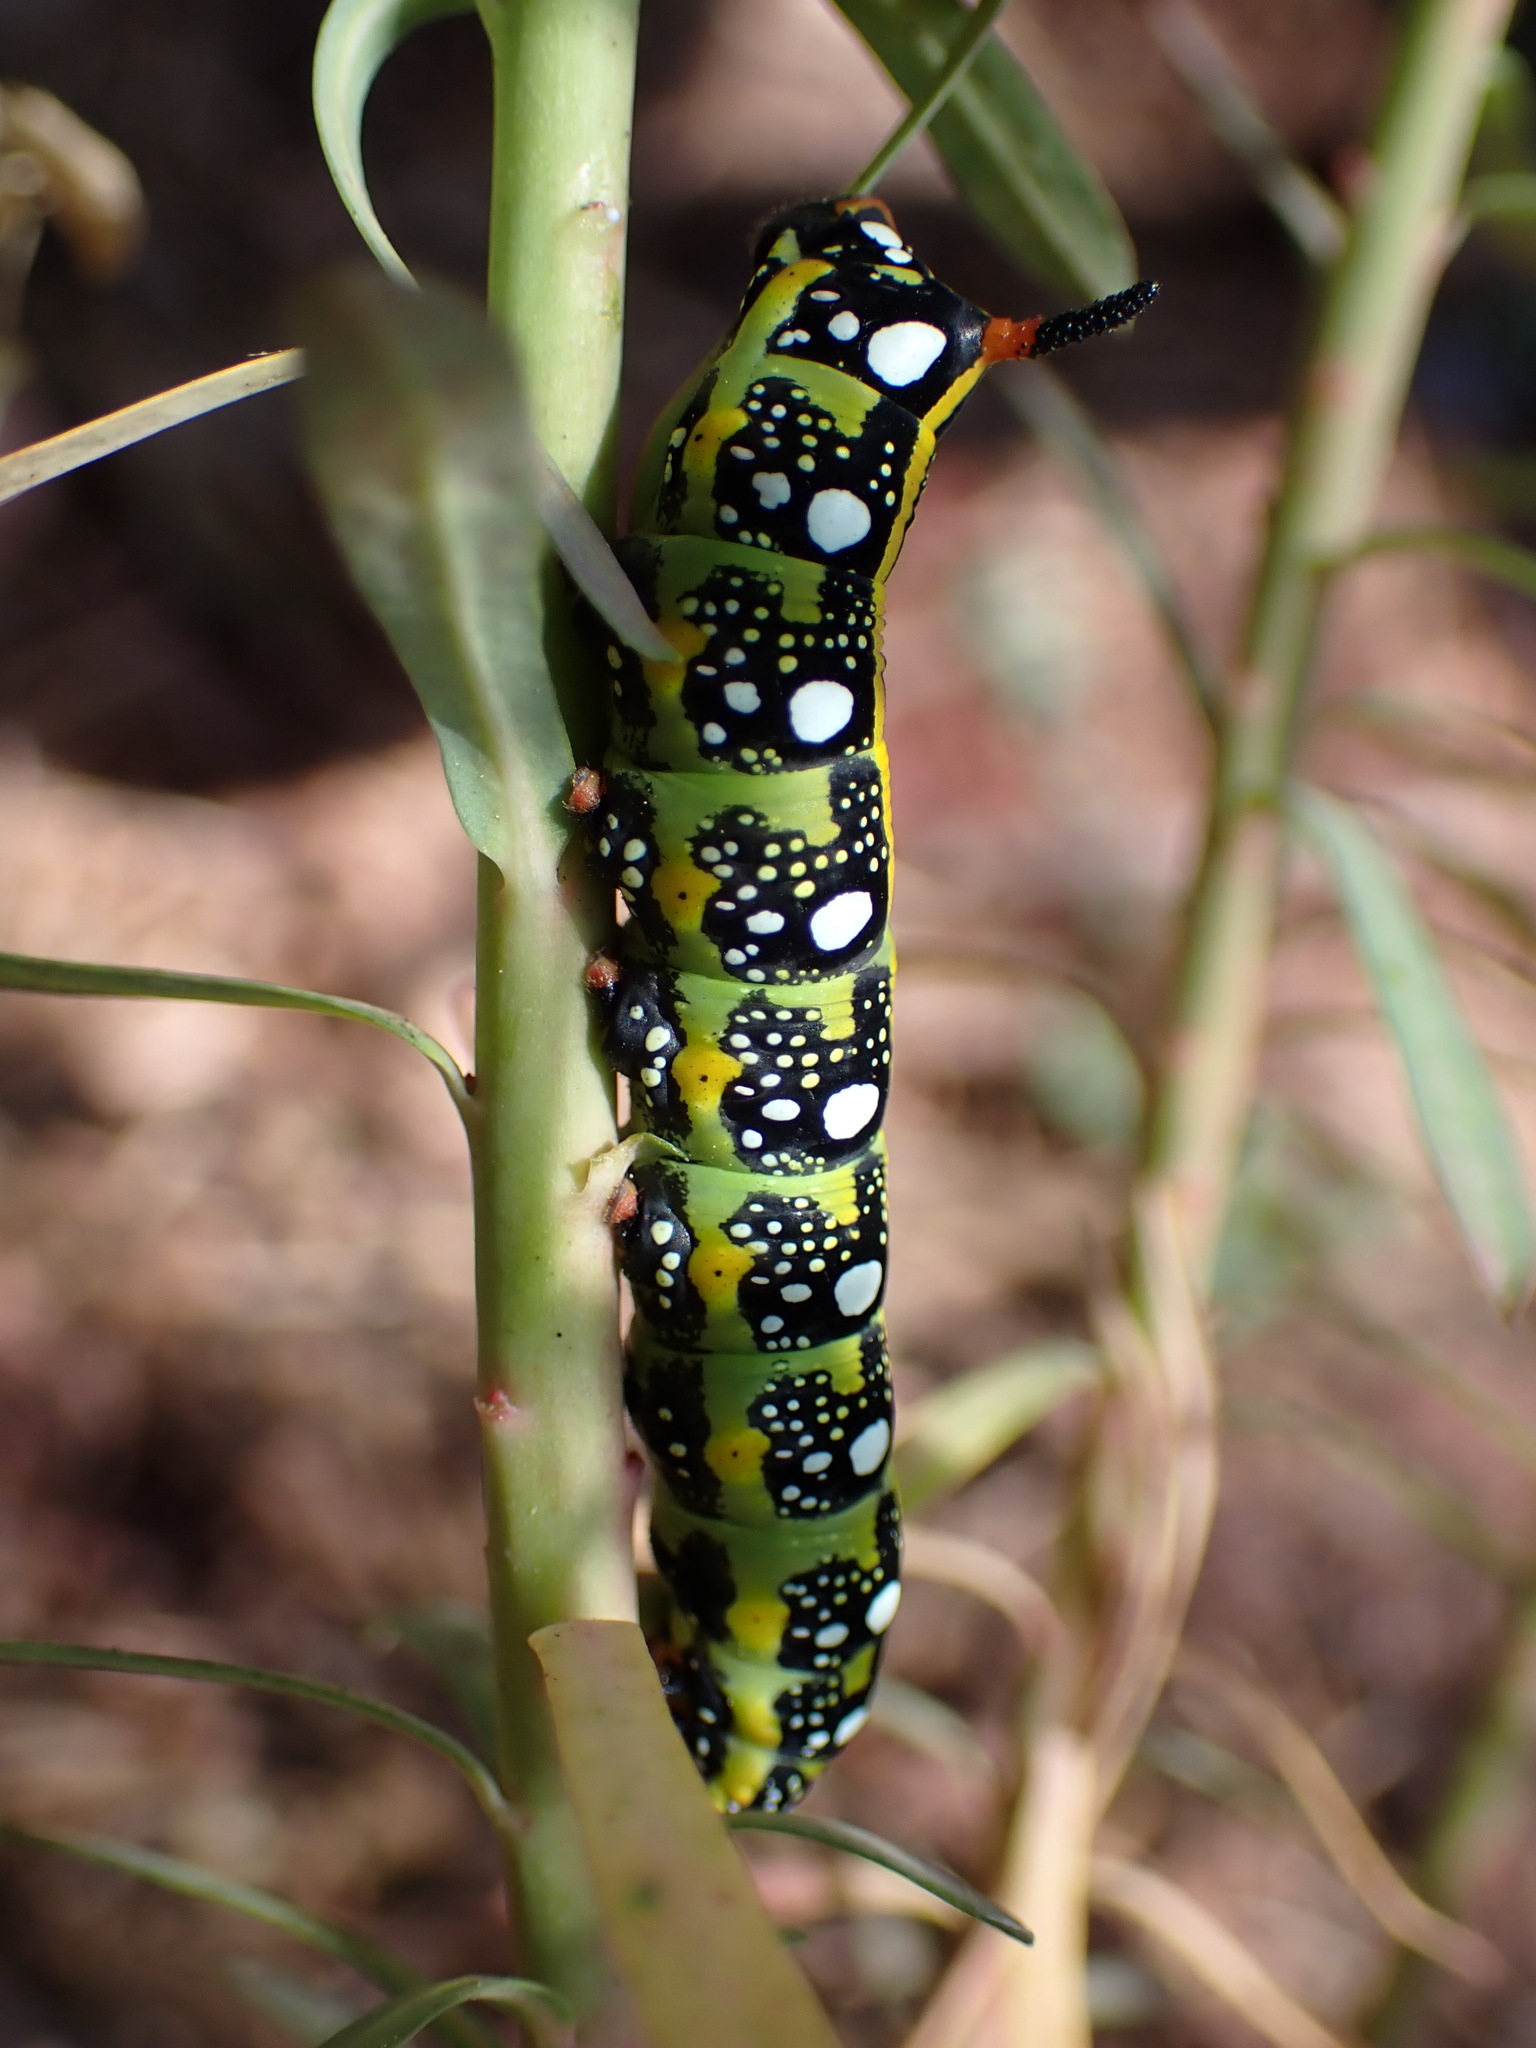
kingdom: Animalia
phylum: Arthropoda
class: Insecta
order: Lepidoptera
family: Sphingidae
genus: Hyles
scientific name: Hyles euphorbiae
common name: Spurge hawk-moth
